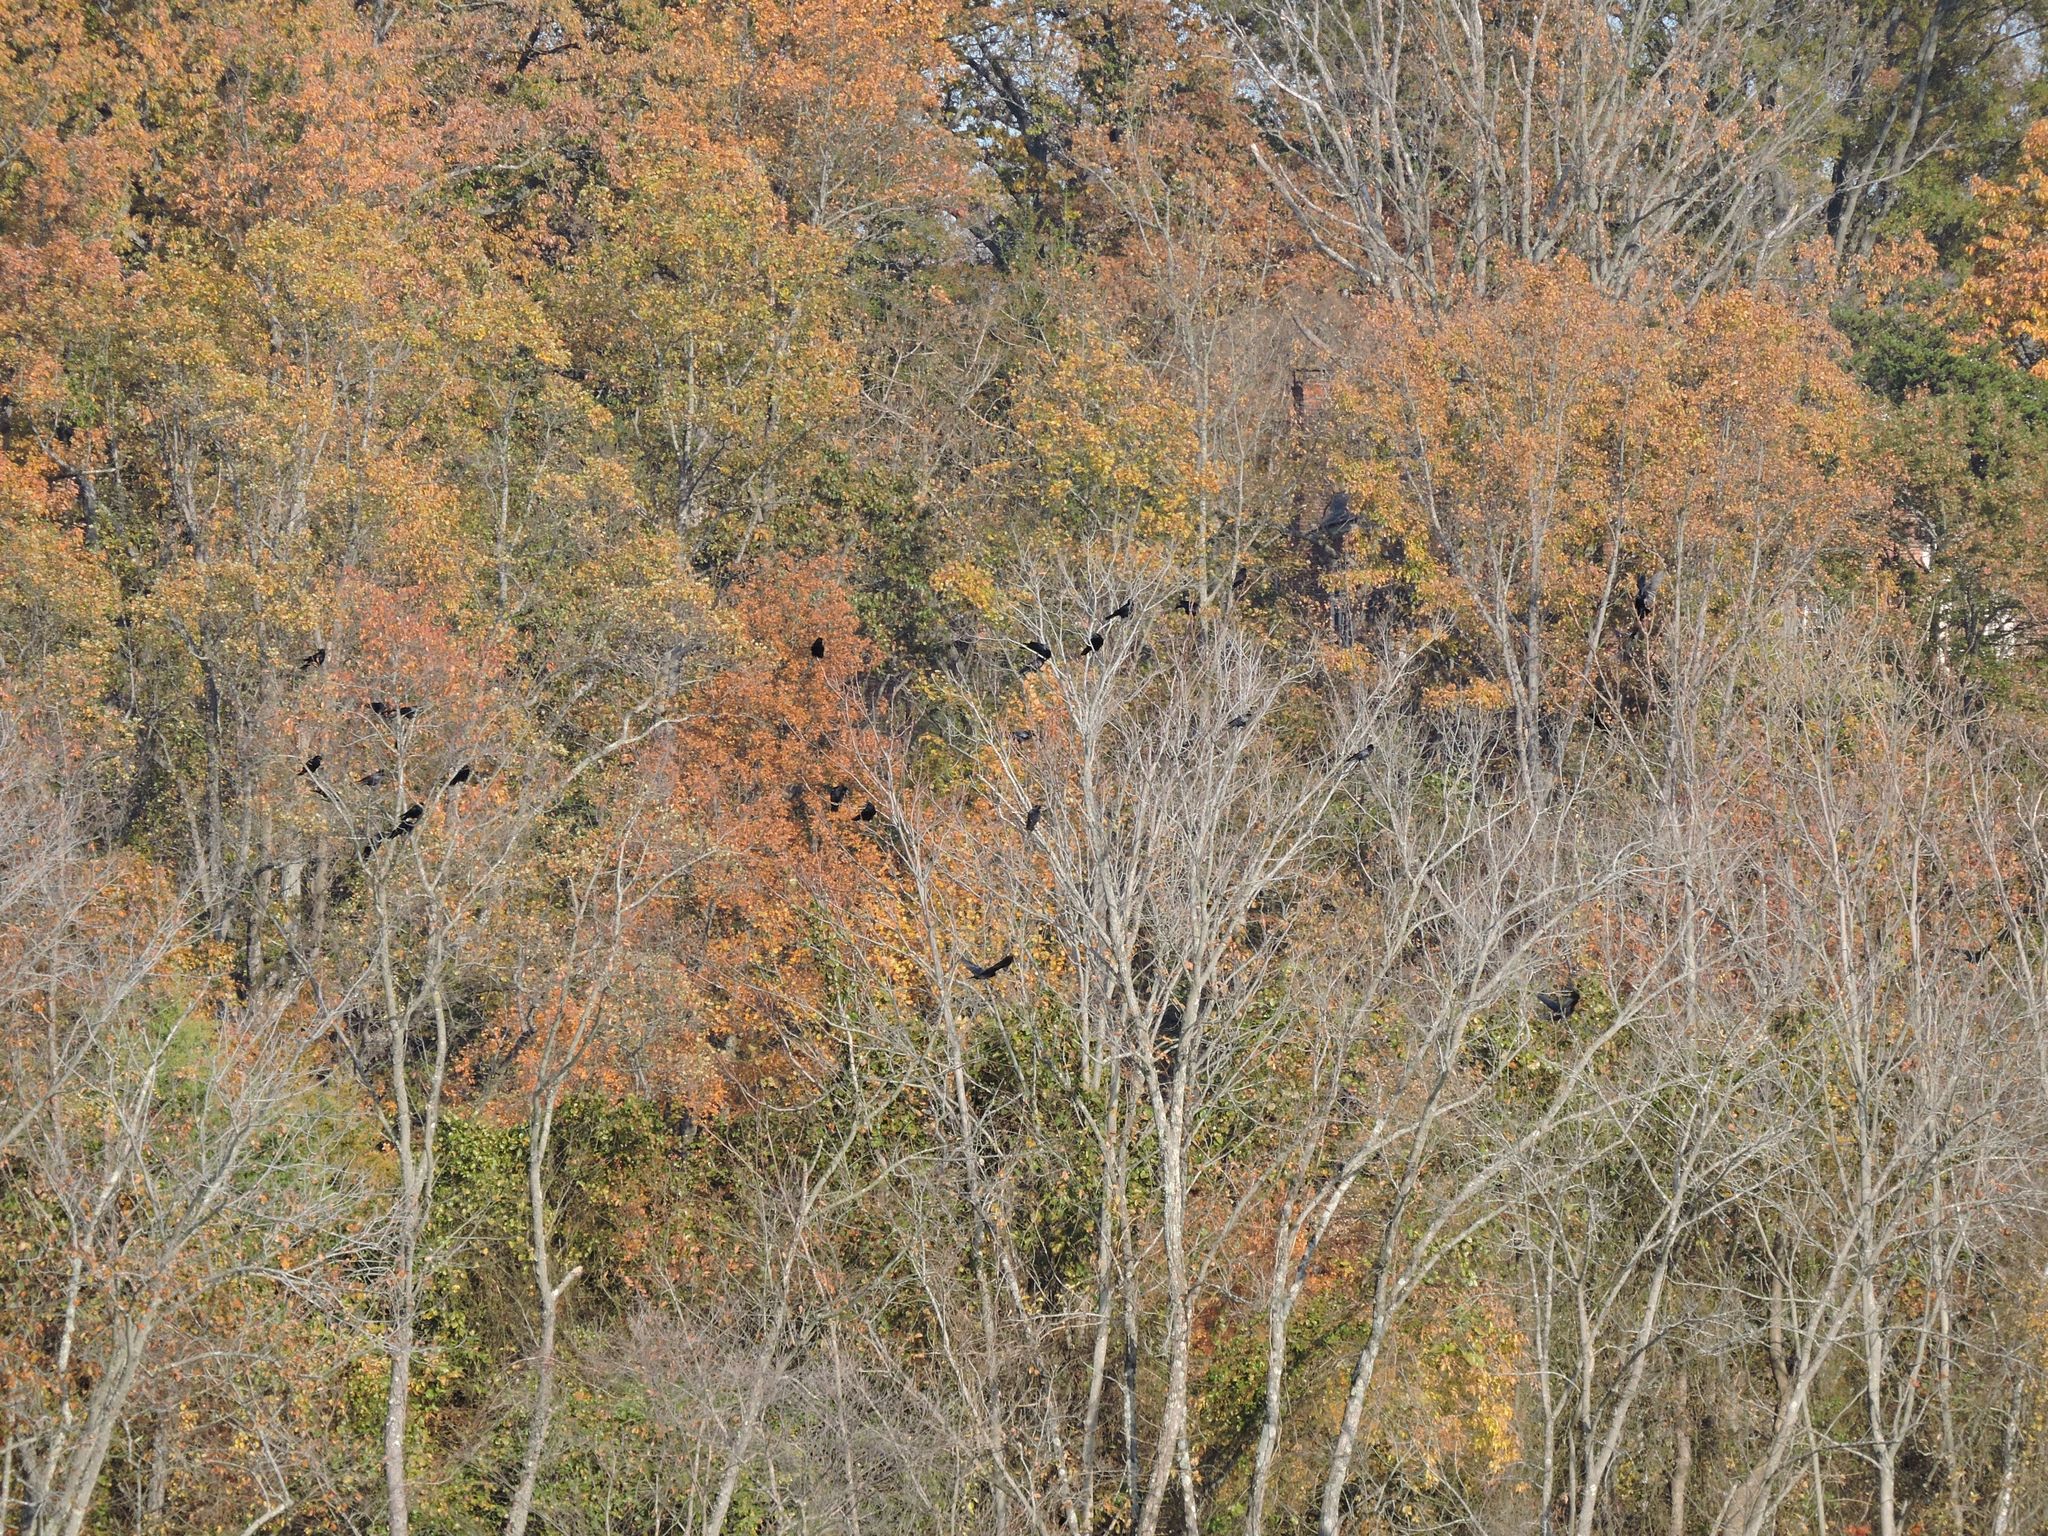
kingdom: Animalia
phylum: Chordata
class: Aves
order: Passeriformes
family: Corvidae
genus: Corvus
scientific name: Corvus brachyrhynchos
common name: American crow
